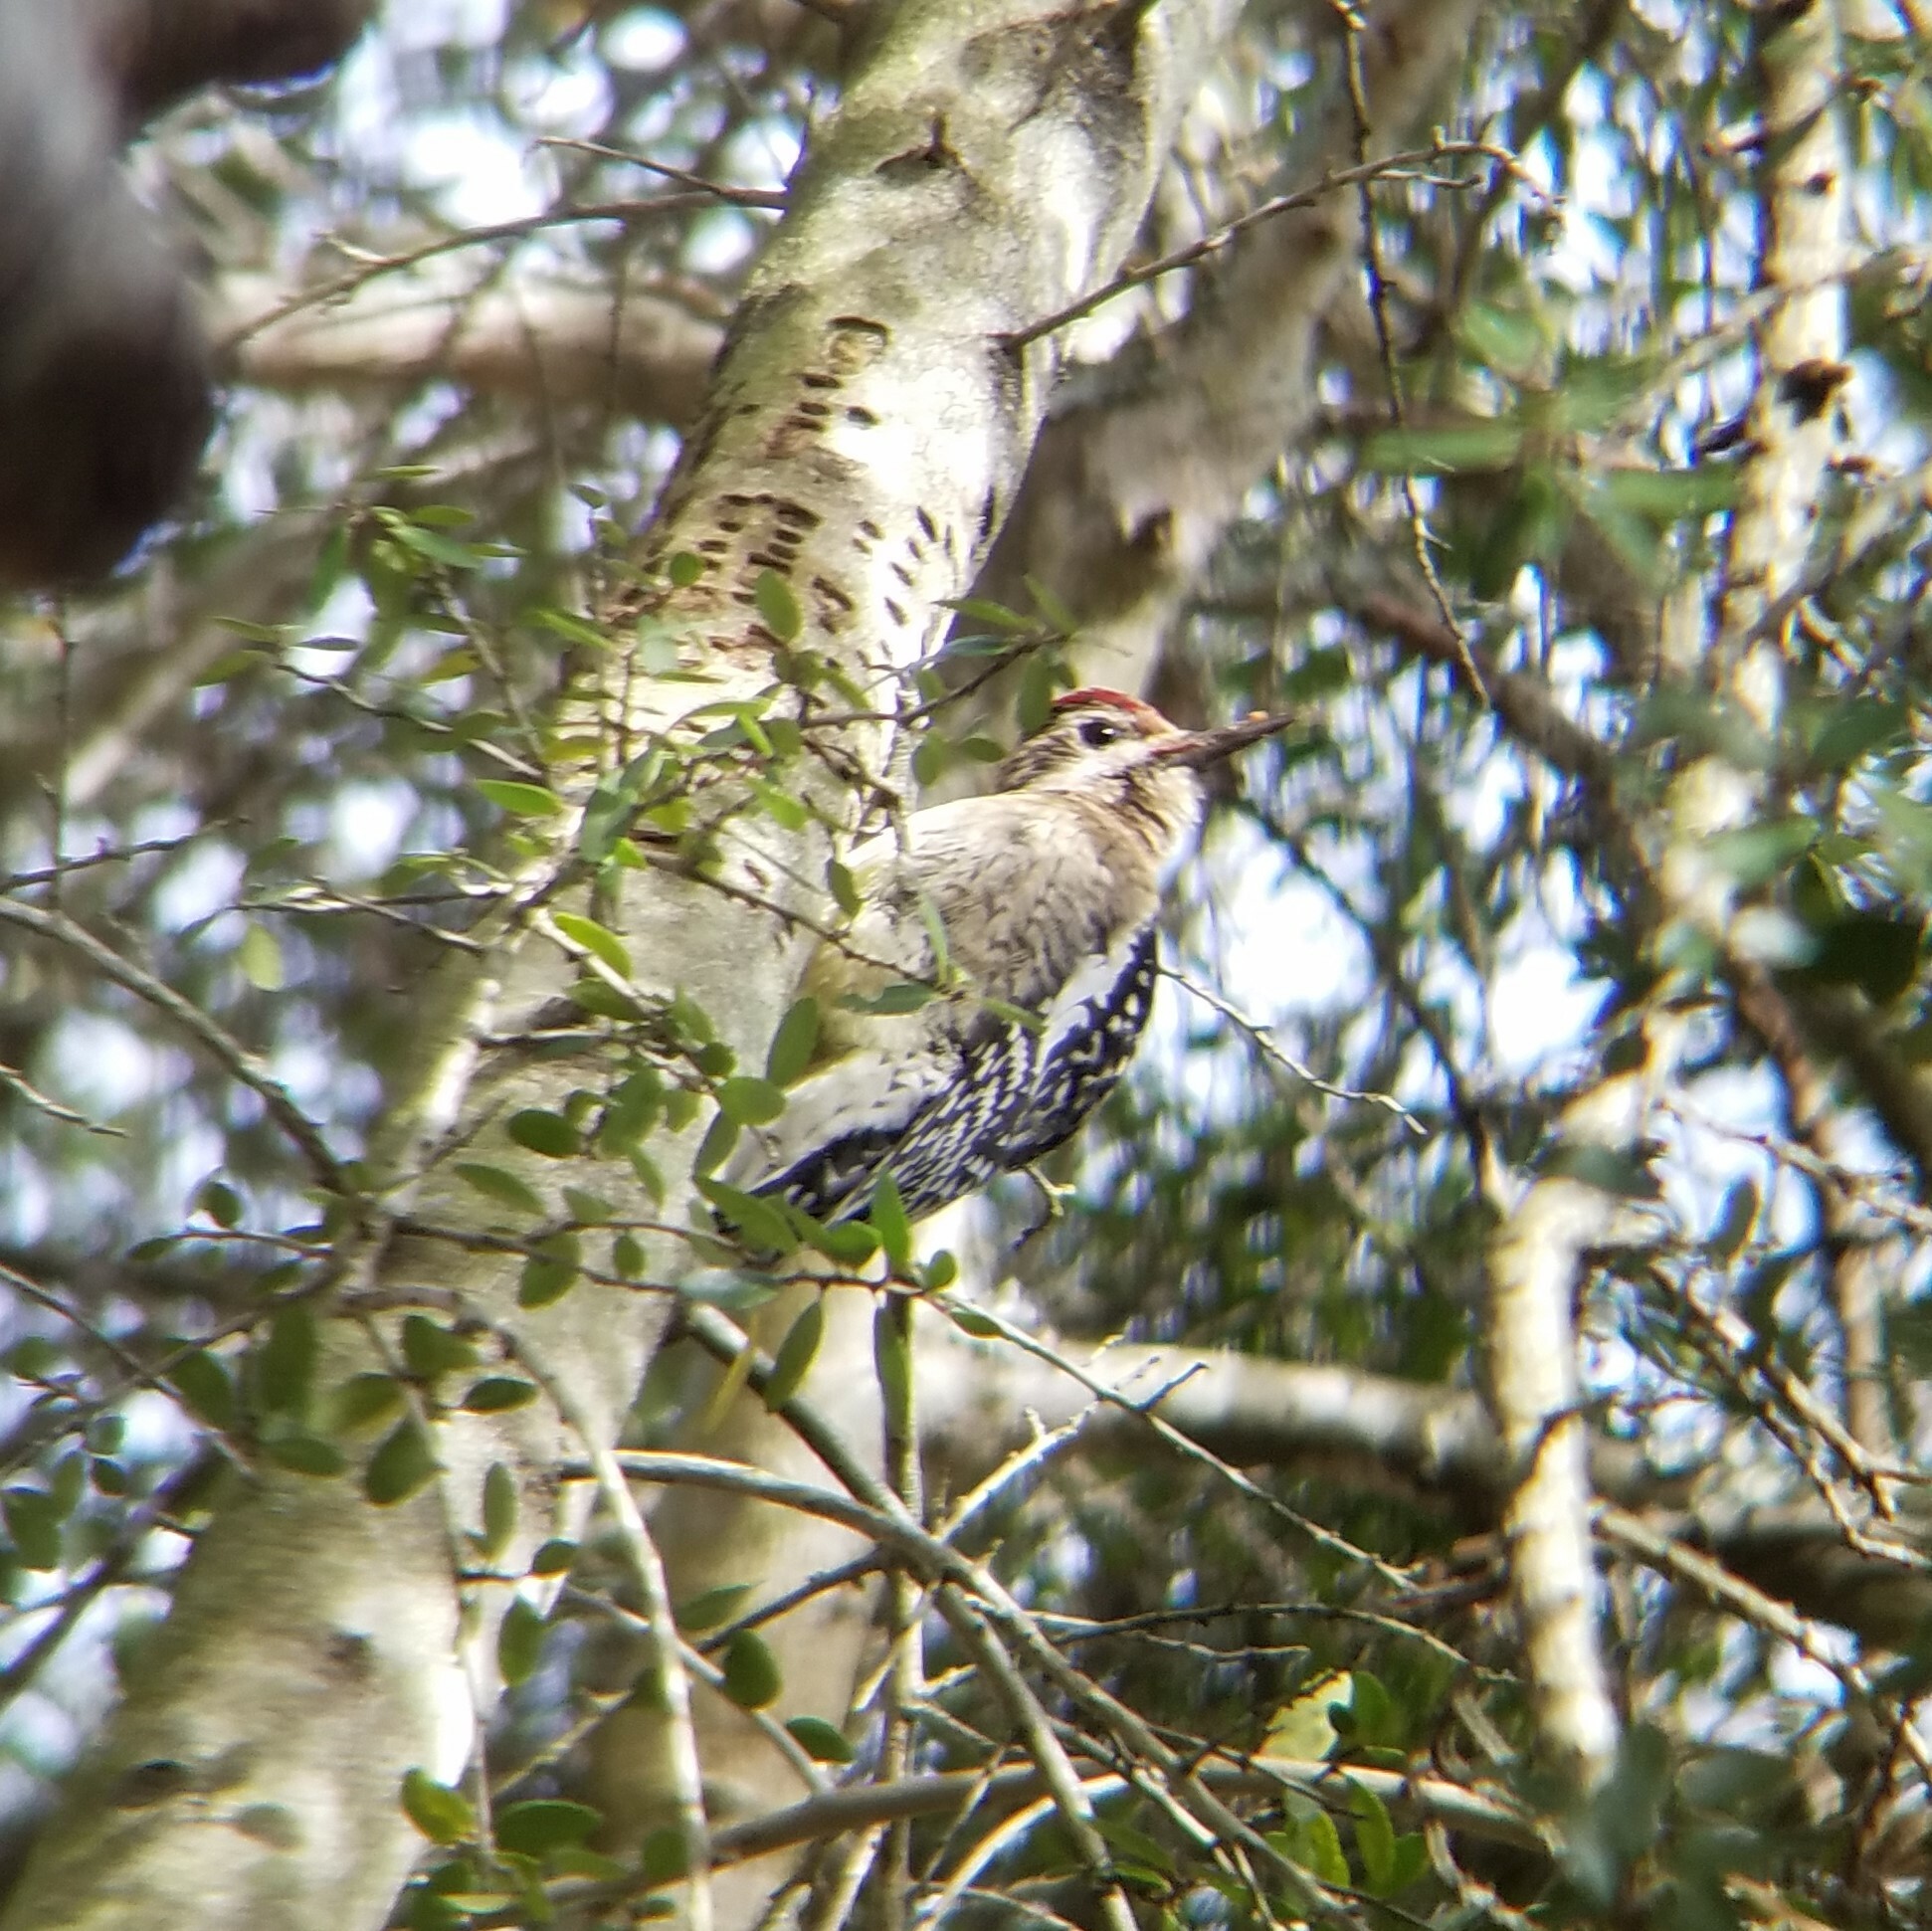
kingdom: Animalia
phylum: Chordata
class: Aves
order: Piciformes
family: Picidae
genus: Sphyrapicus
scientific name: Sphyrapicus varius
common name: Yellow-bellied sapsucker
